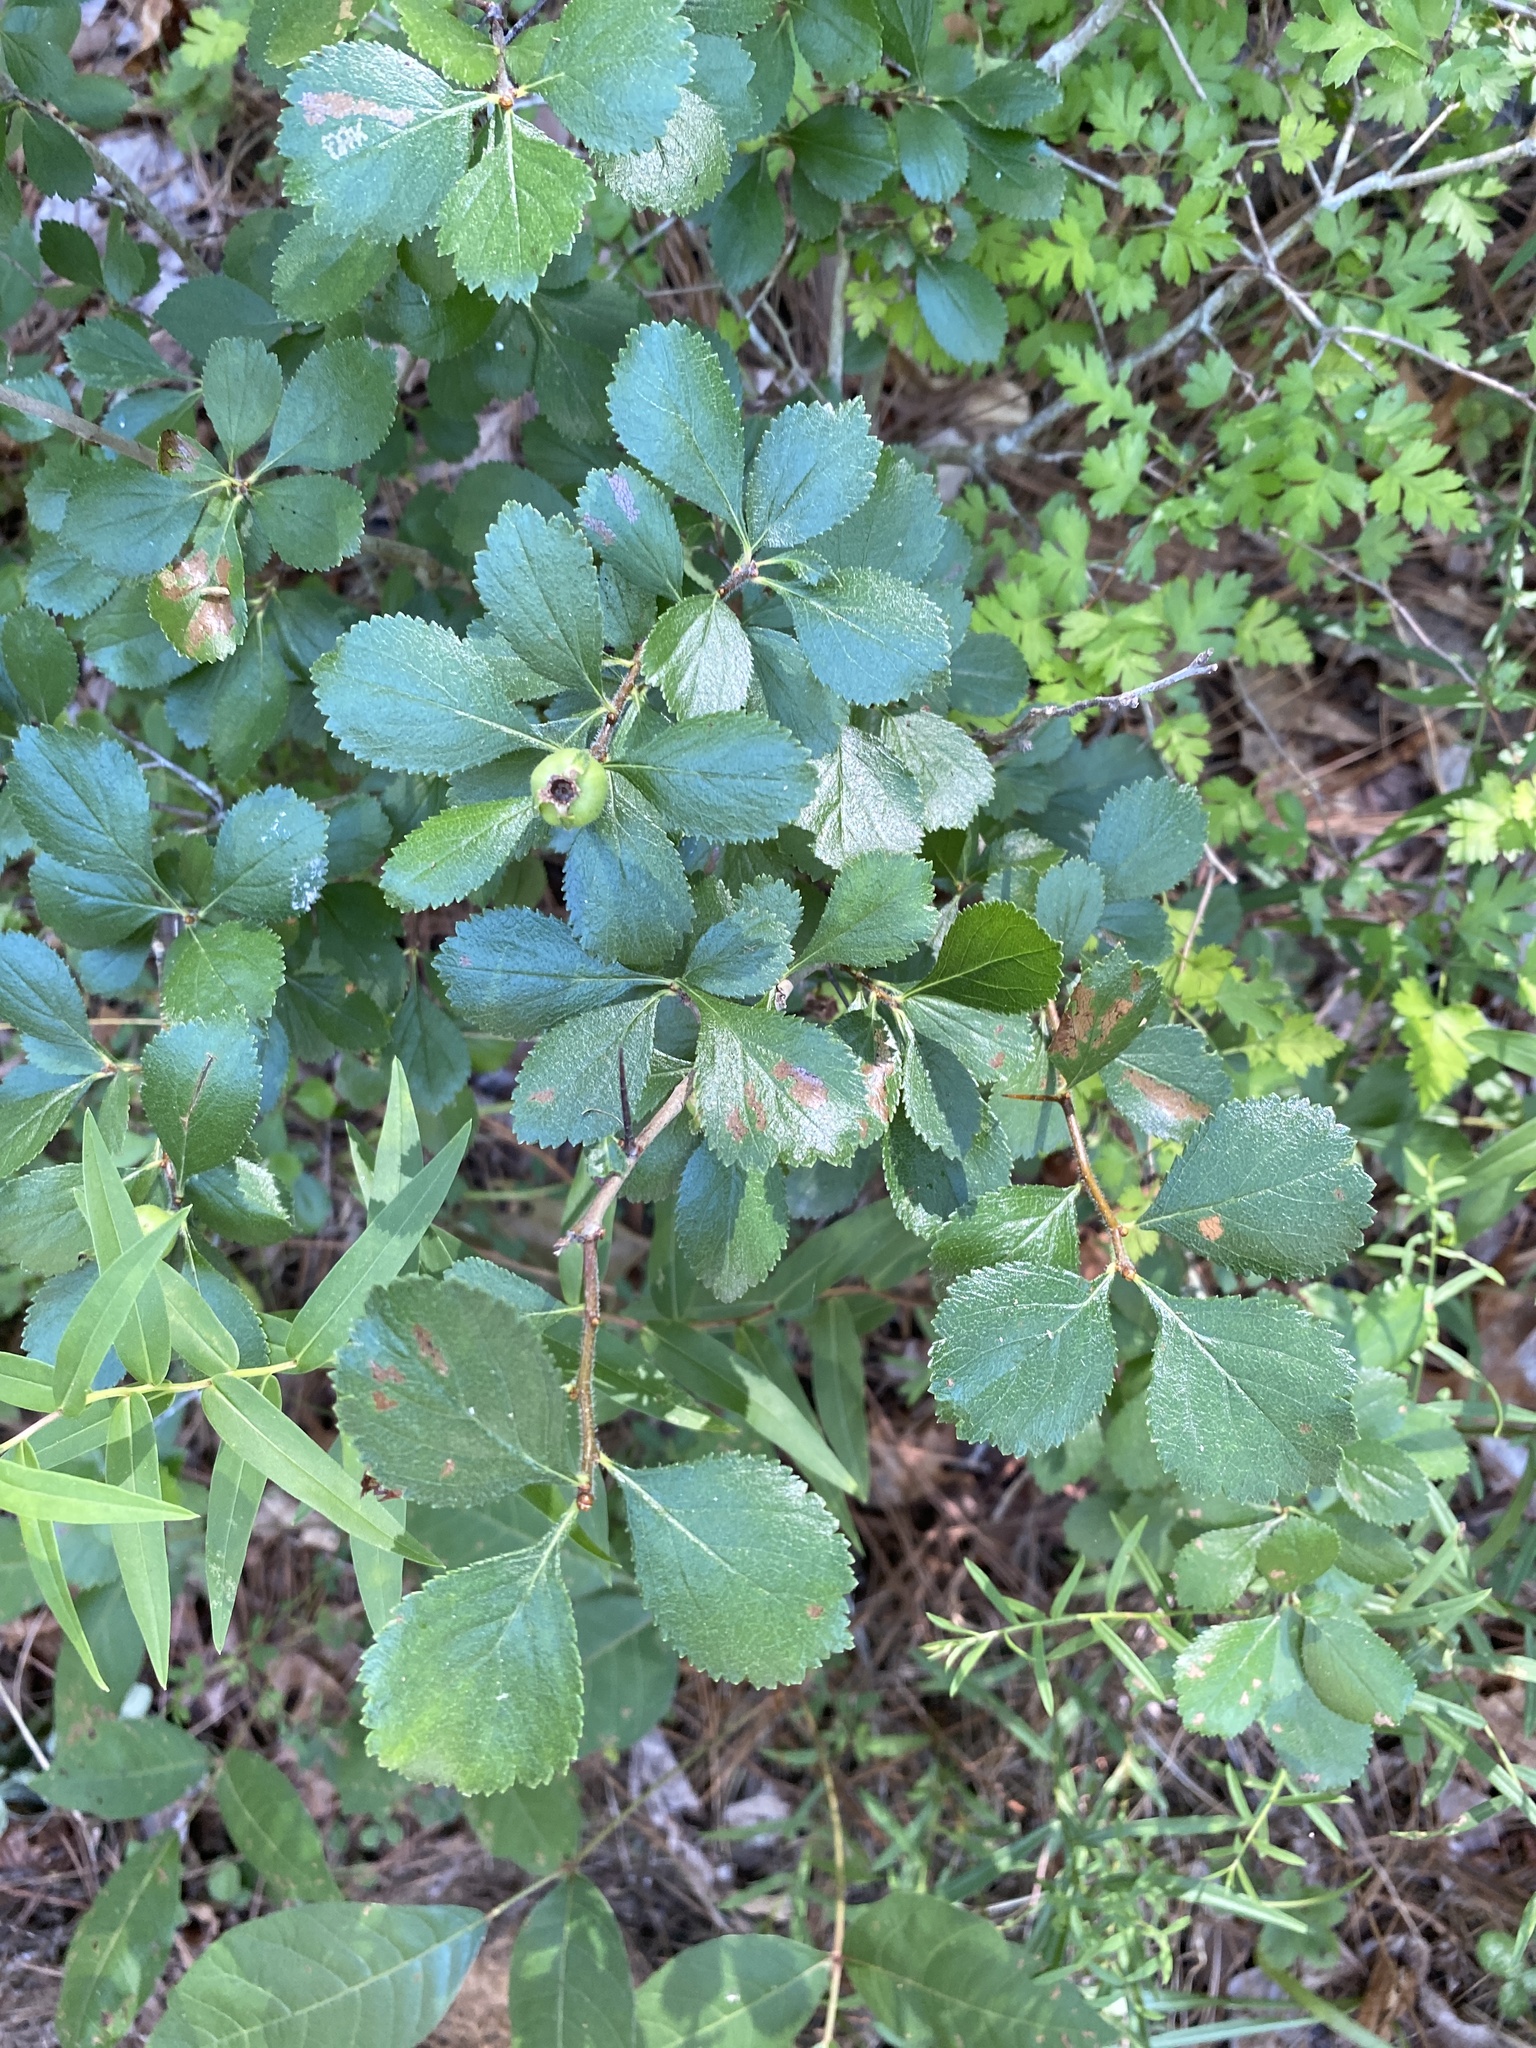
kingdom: Plantae
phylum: Tracheophyta
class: Magnoliopsida
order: Rosales
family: Rosaceae
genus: Crataegus
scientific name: Crataegus uniflora
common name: One-flower hawthorn
